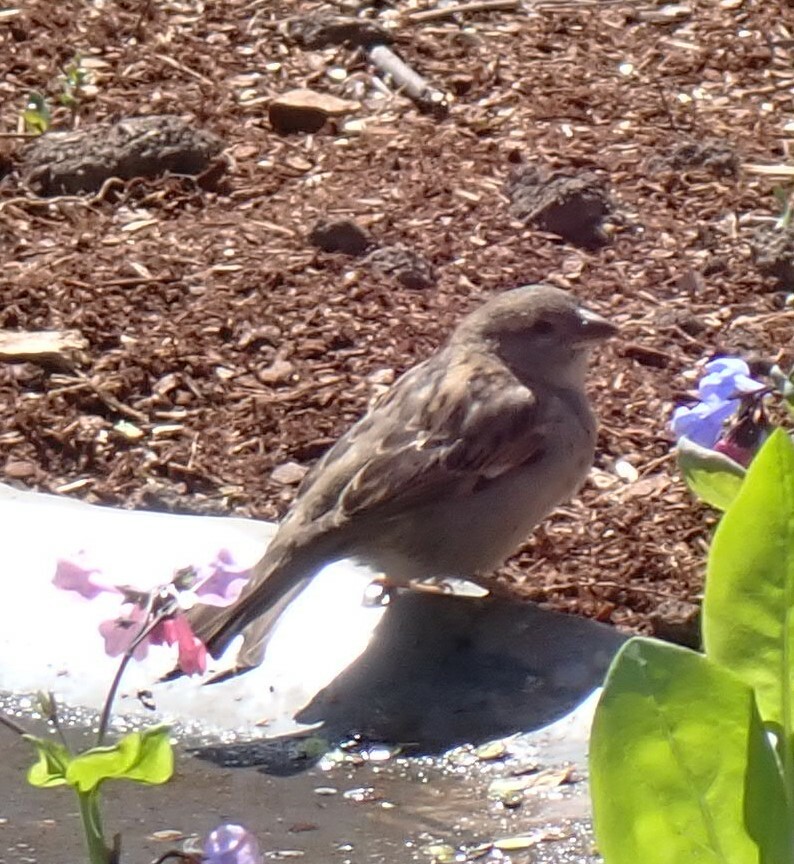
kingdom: Animalia
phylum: Chordata
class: Aves
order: Passeriformes
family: Passeridae
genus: Passer
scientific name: Passer domesticus
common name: House sparrow
